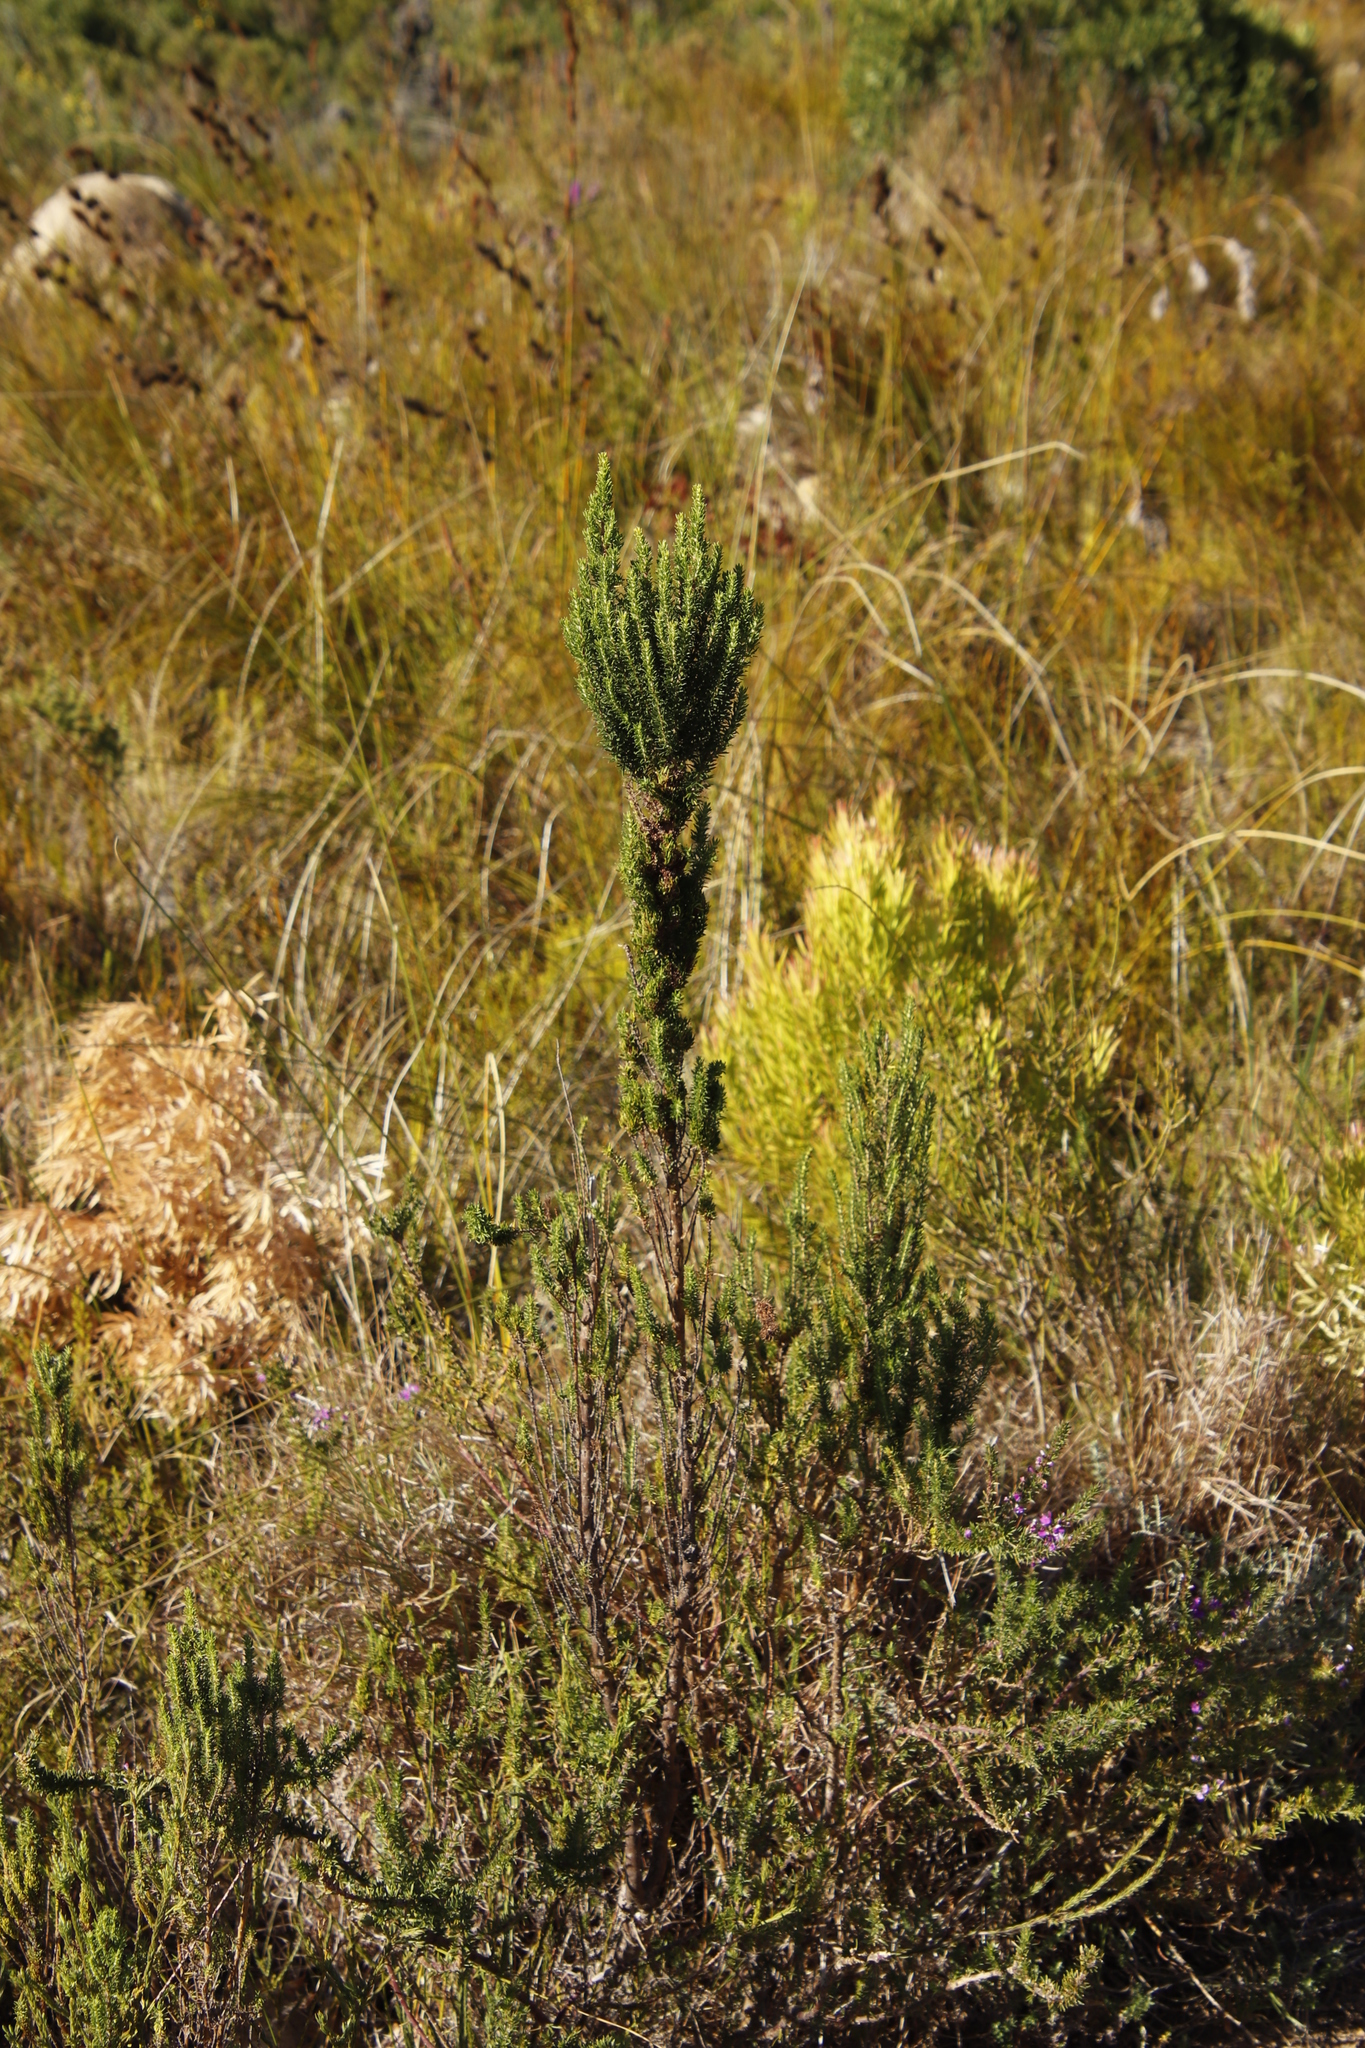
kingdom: Plantae
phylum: Tracheophyta
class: Magnoliopsida
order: Gentianales
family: Rubiaceae
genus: Anthospermum
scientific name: Anthospermum aethiopicum
